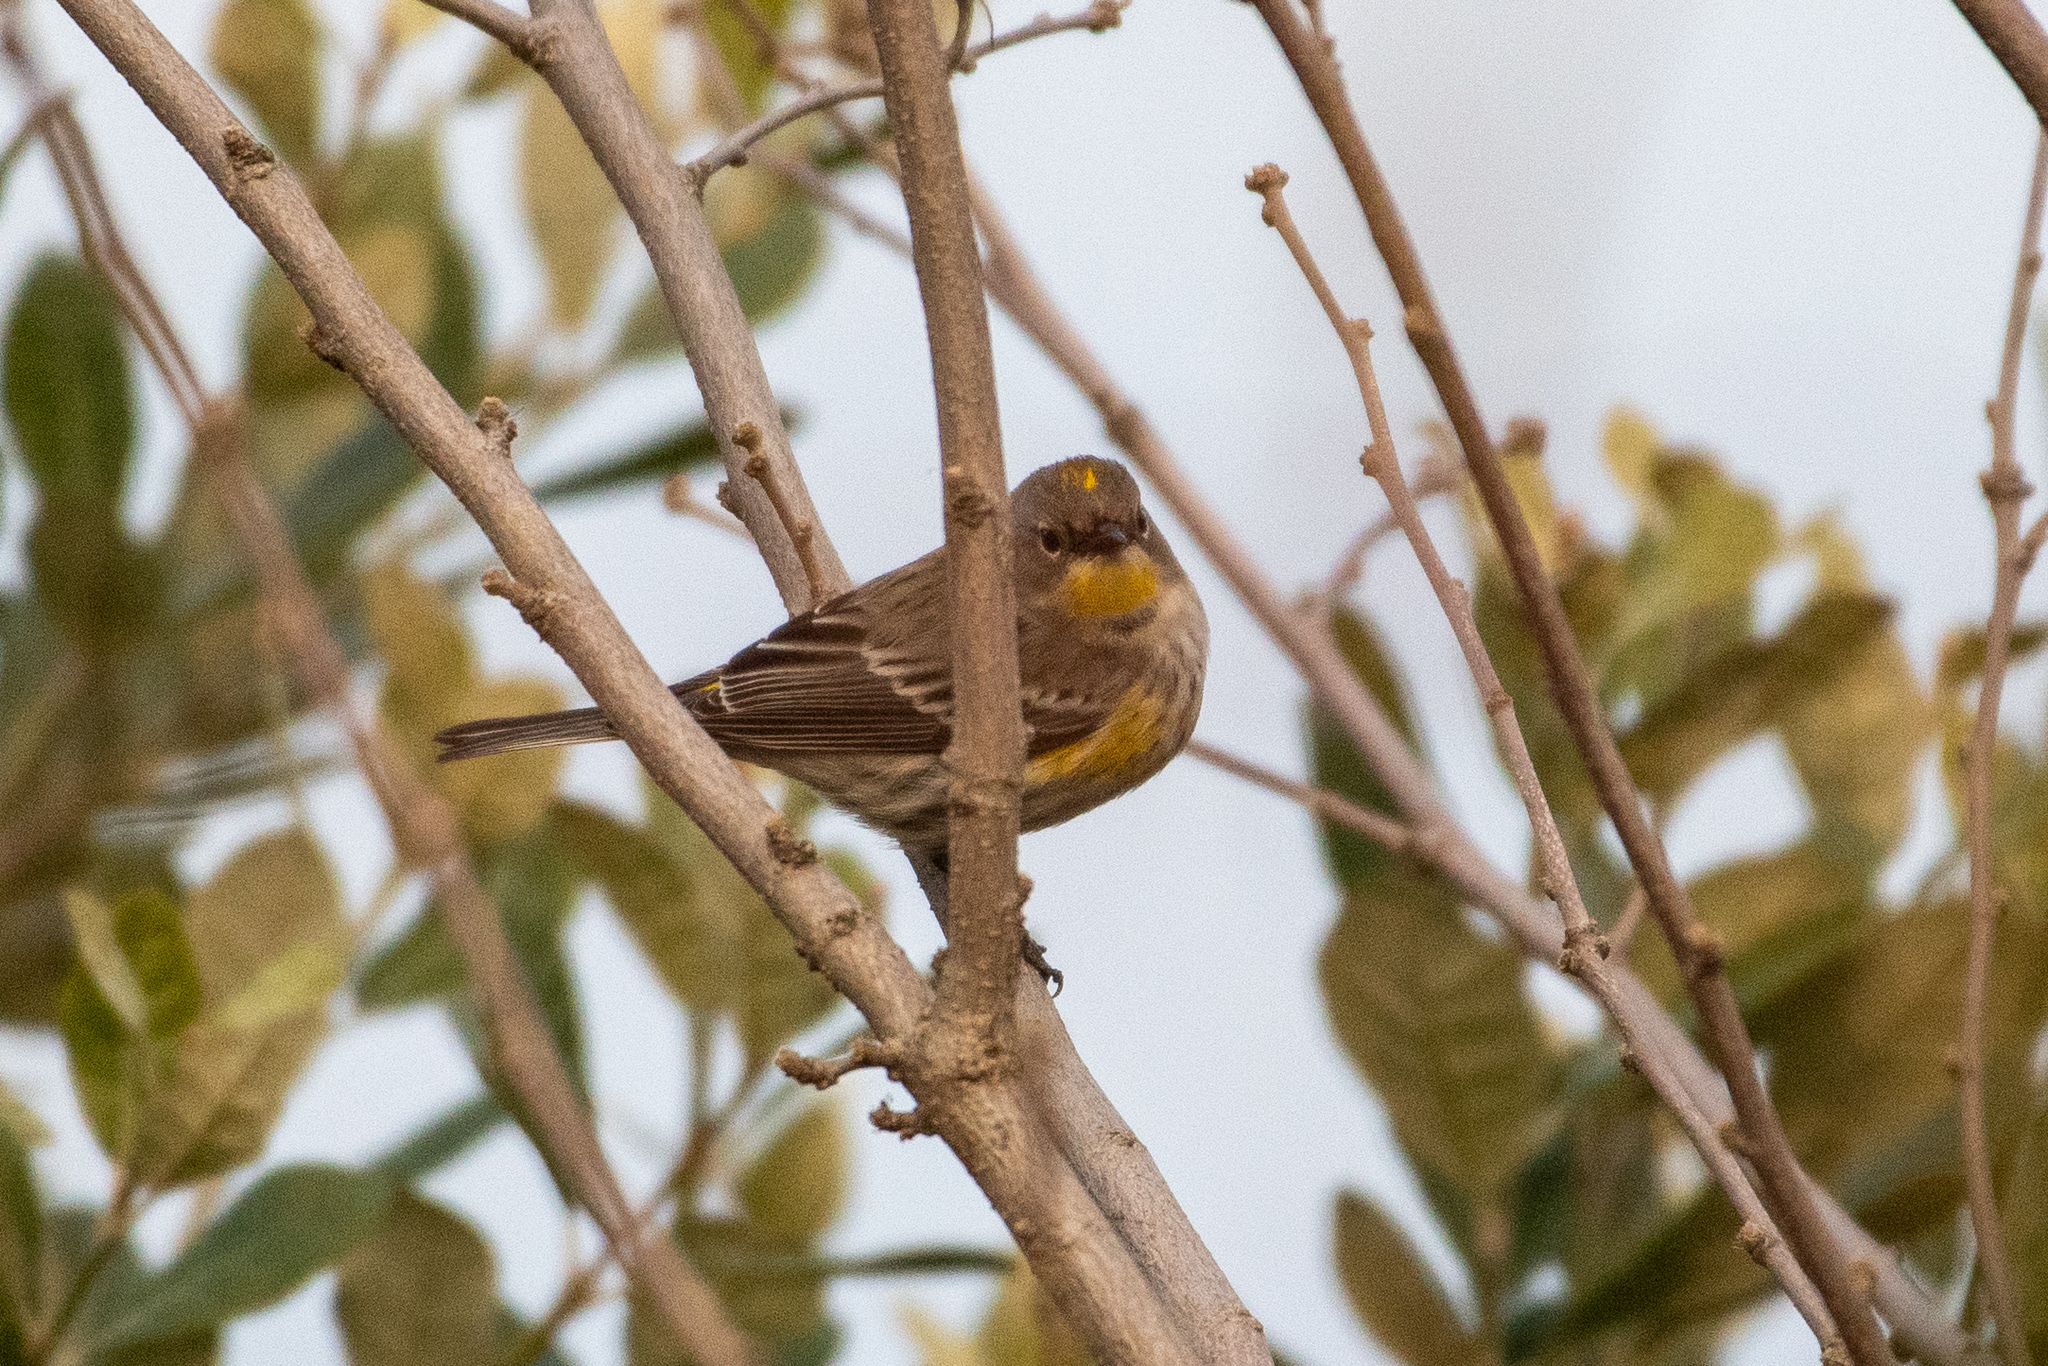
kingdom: Animalia
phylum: Chordata
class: Aves
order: Passeriformes
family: Parulidae
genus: Setophaga
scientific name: Setophaga coronata
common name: Myrtle warbler
